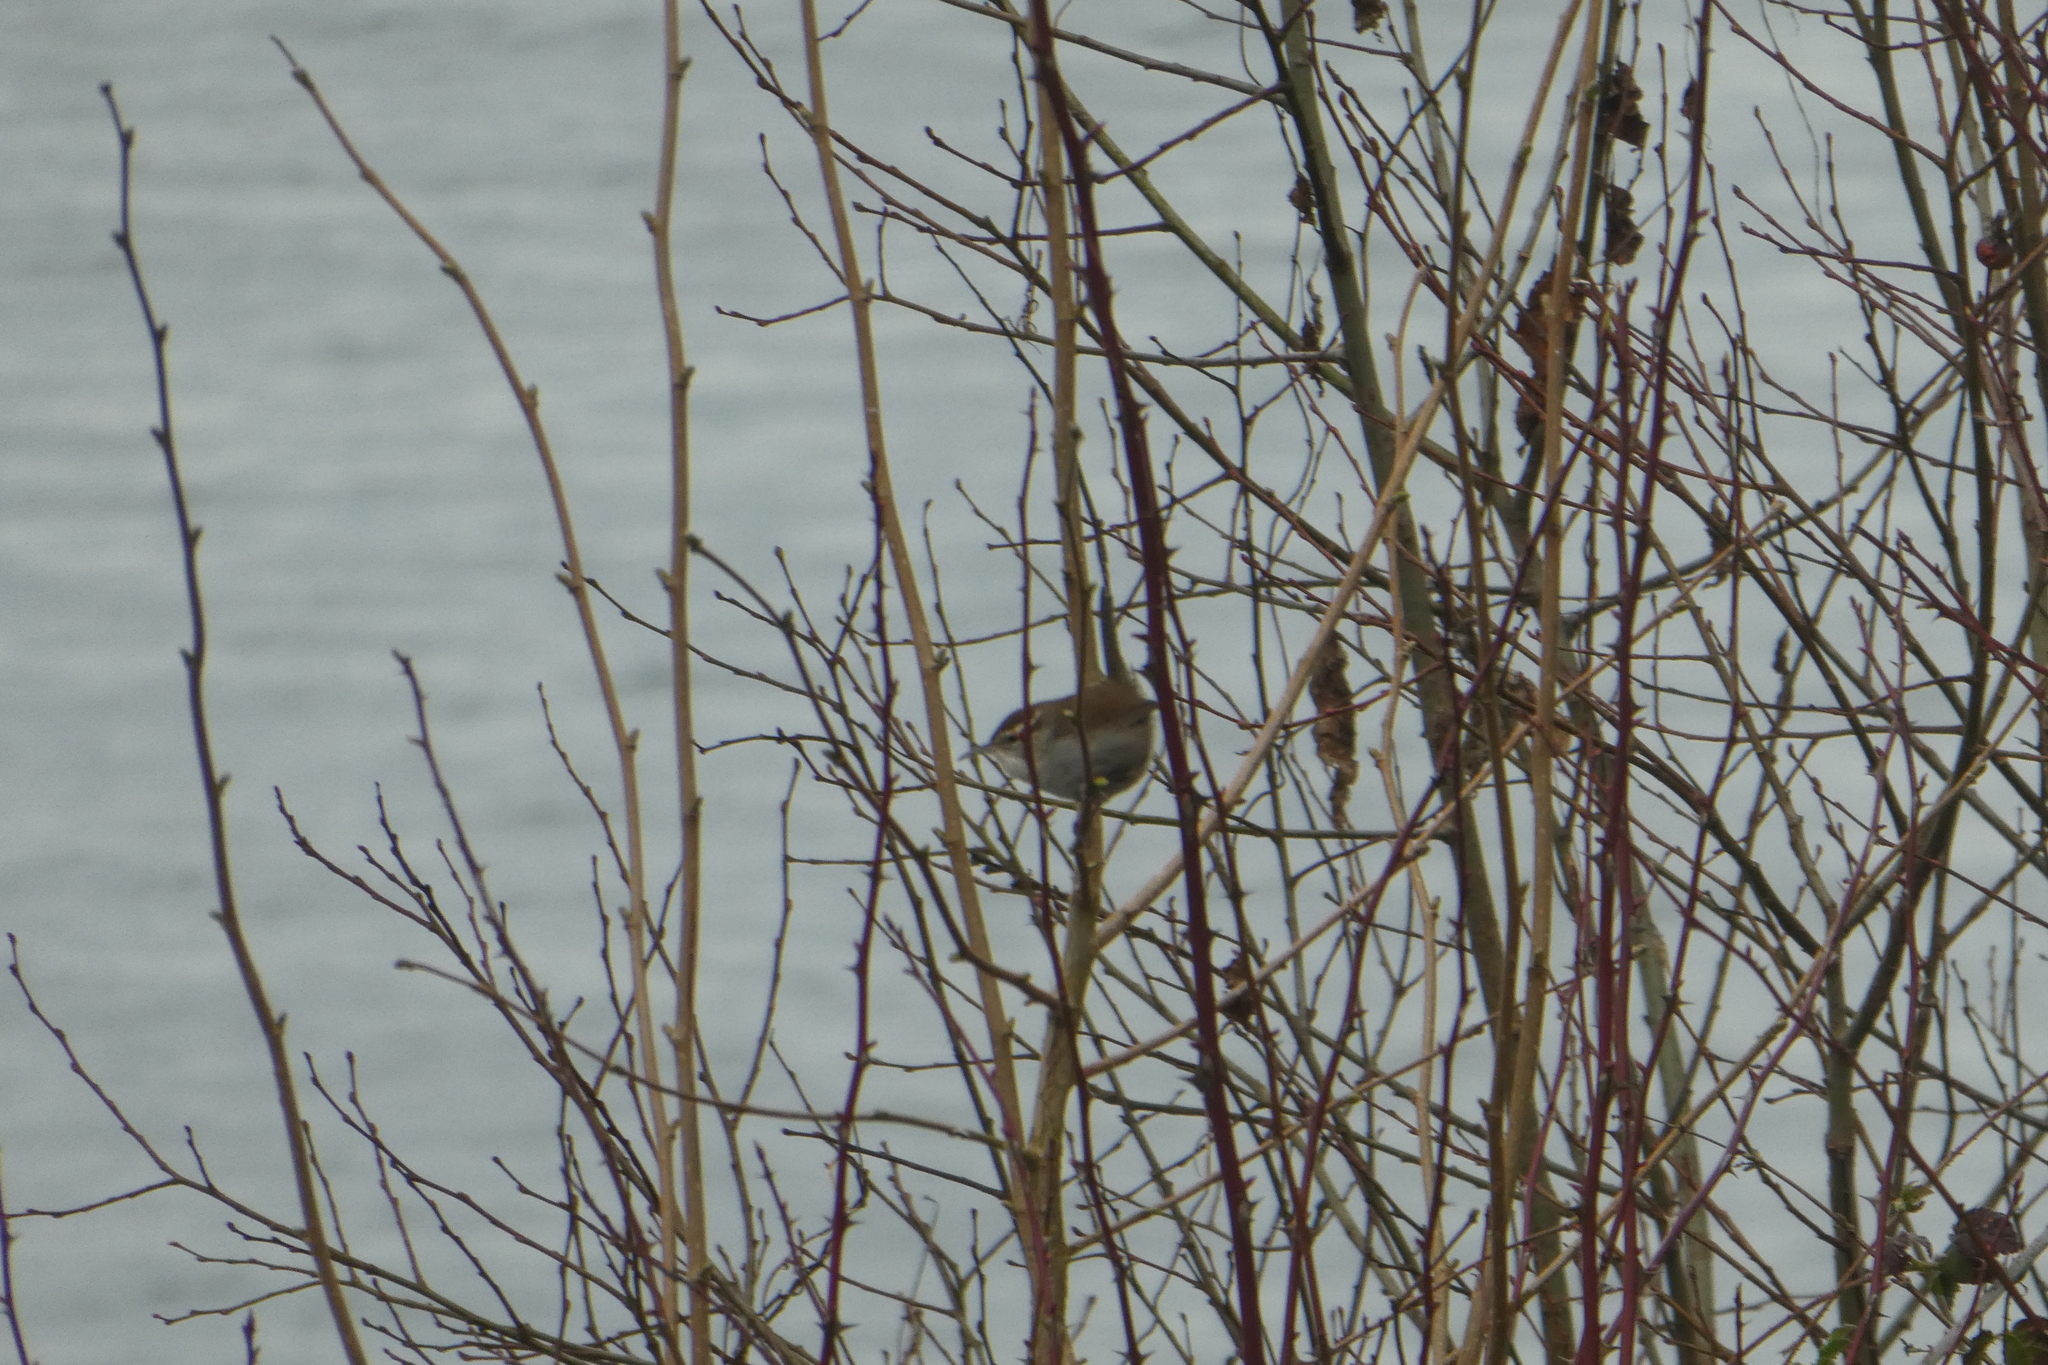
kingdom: Animalia
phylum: Chordata
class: Aves
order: Passeriformes
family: Troglodytidae
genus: Thryomanes
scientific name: Thryomanes bewickii
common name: Bewick's wren
